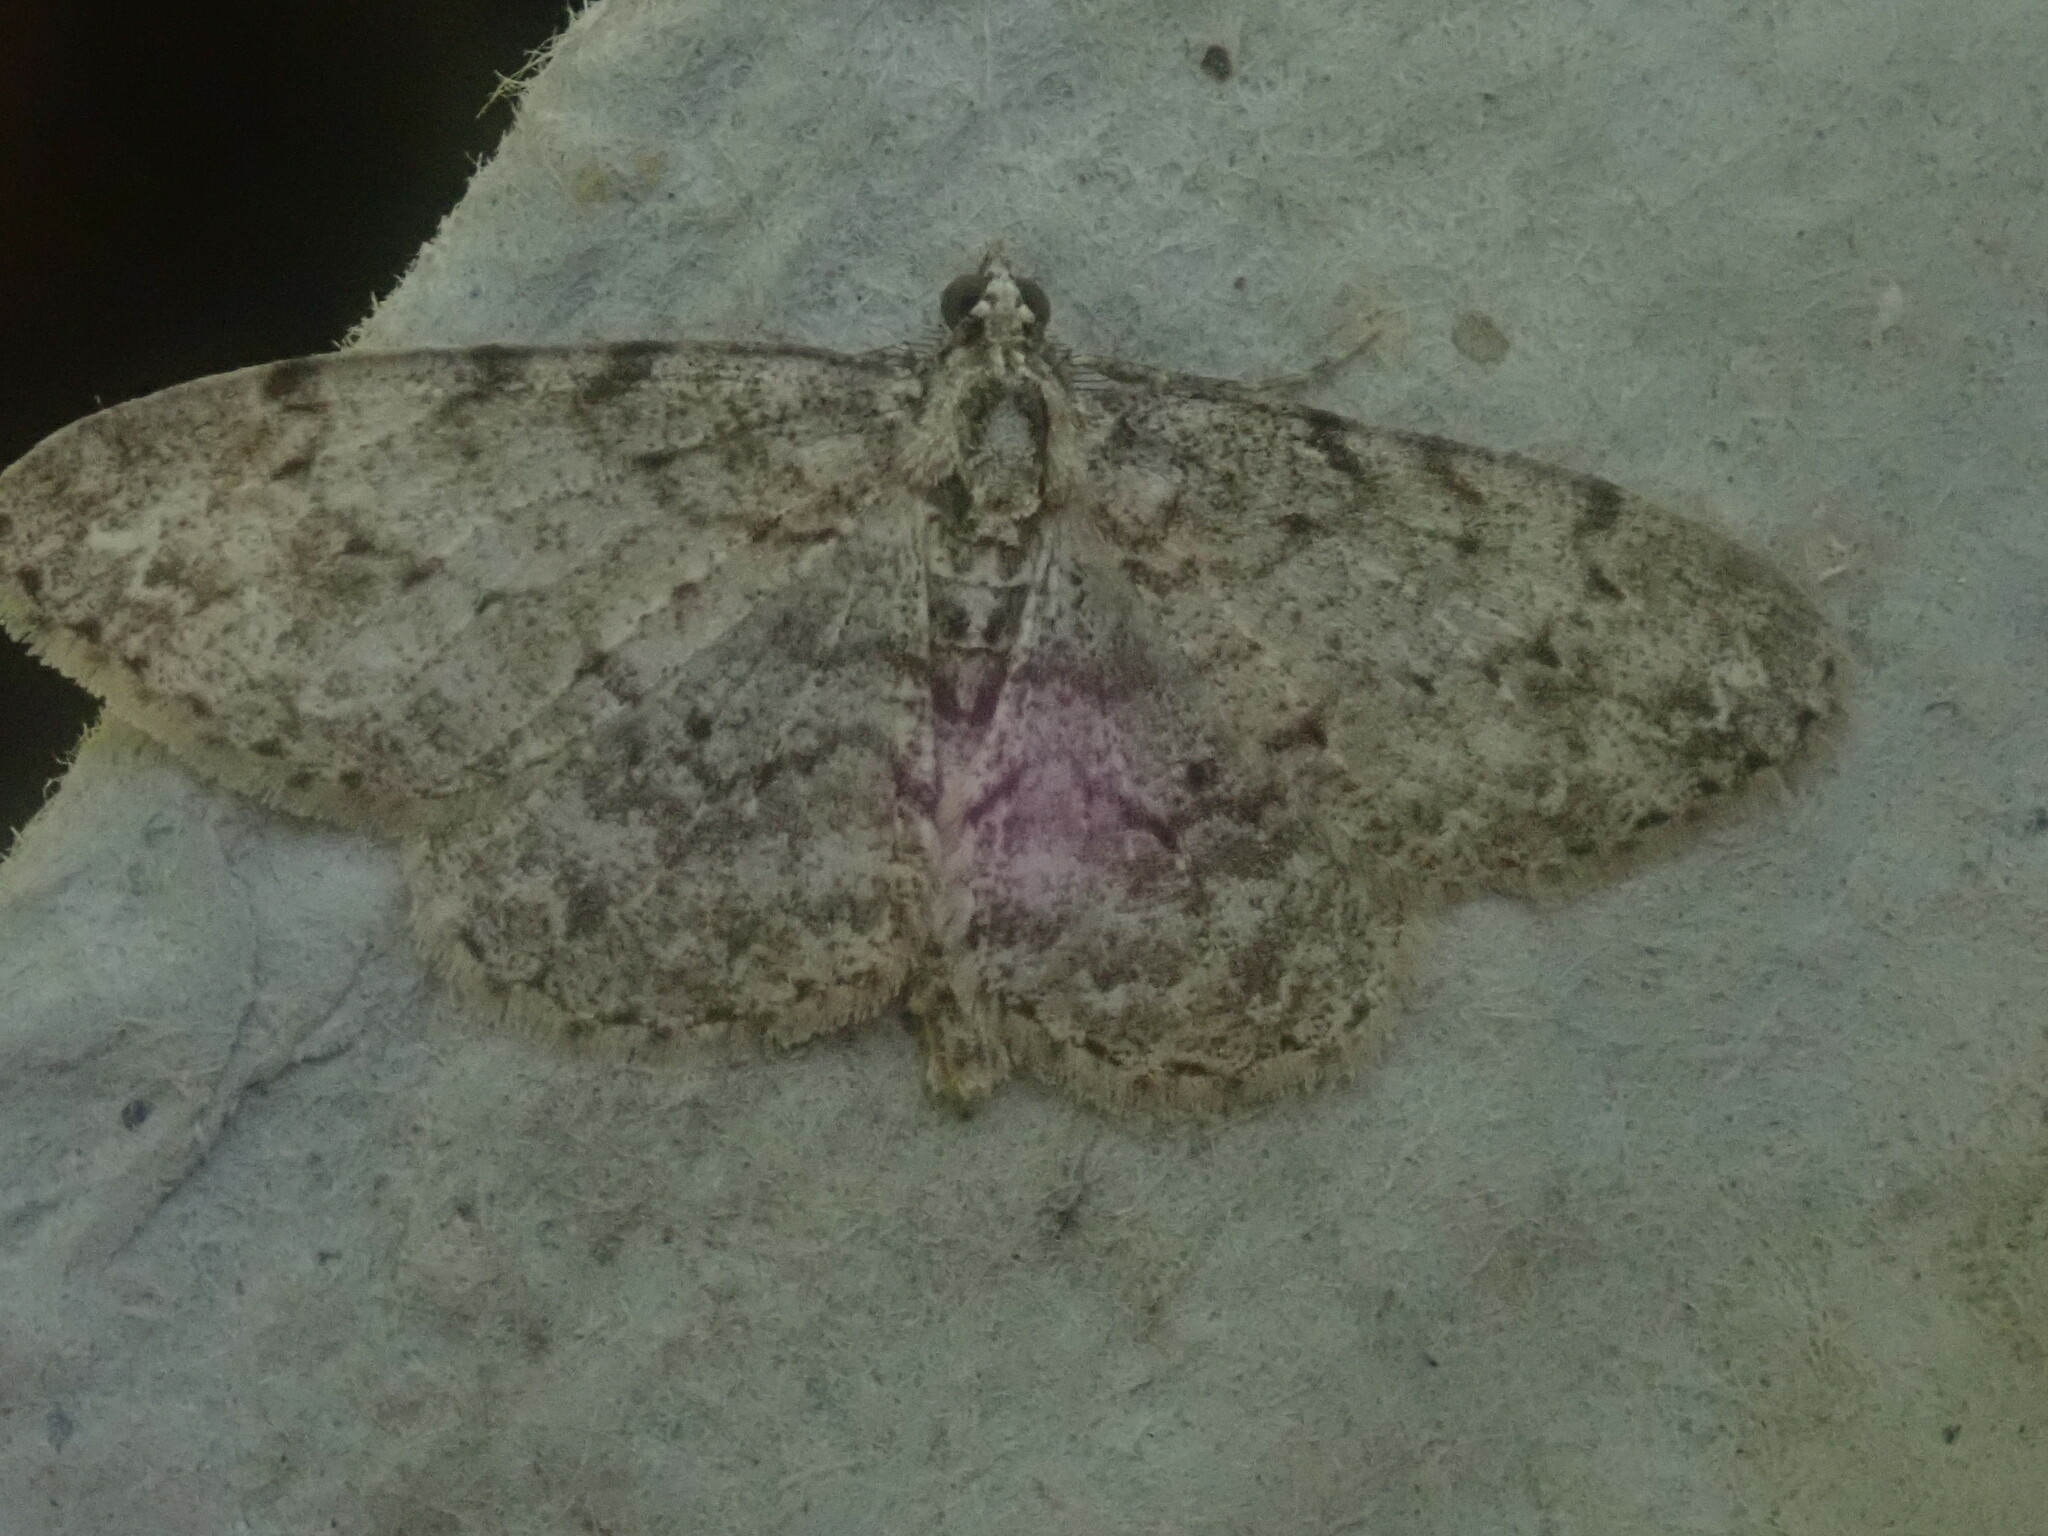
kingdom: Animalia
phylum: Arthropoda
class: Insecta
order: Lepidoptera
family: Geometridae
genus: Protoboarmia
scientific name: Protoboarmia porcelaria
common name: Porcelain gray
